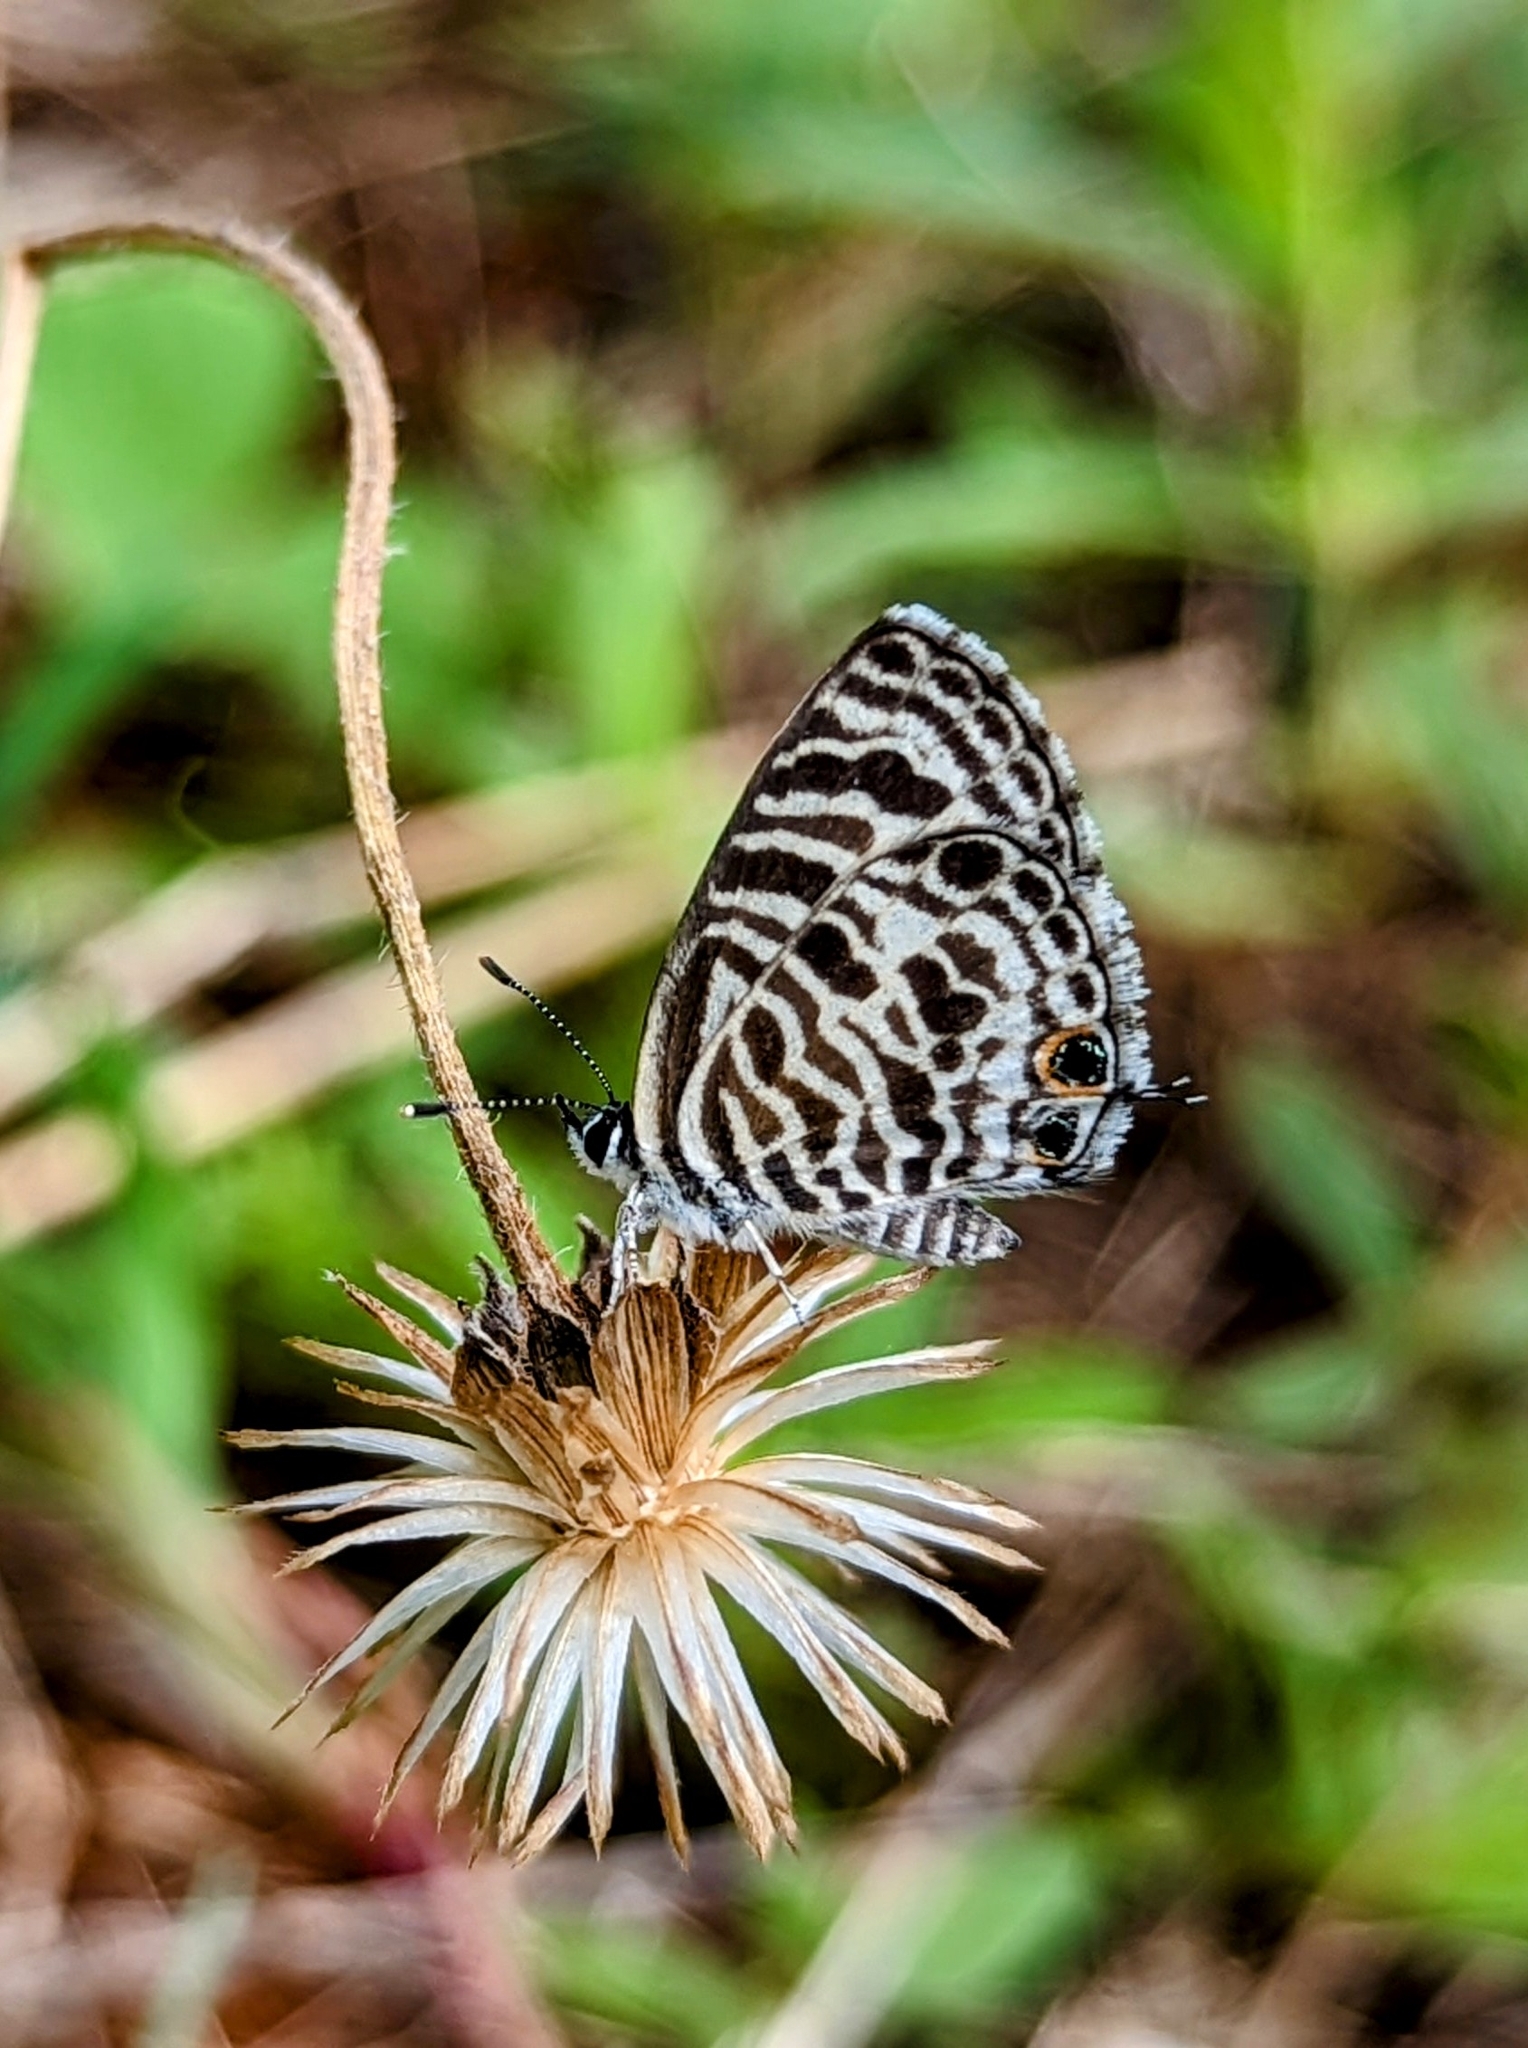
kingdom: Animalia
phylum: Arthropoda
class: Insecta
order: Lepidoptera
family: Lycaenidae
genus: Leptotes
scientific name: Leptotes plinius
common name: Zebra blue
